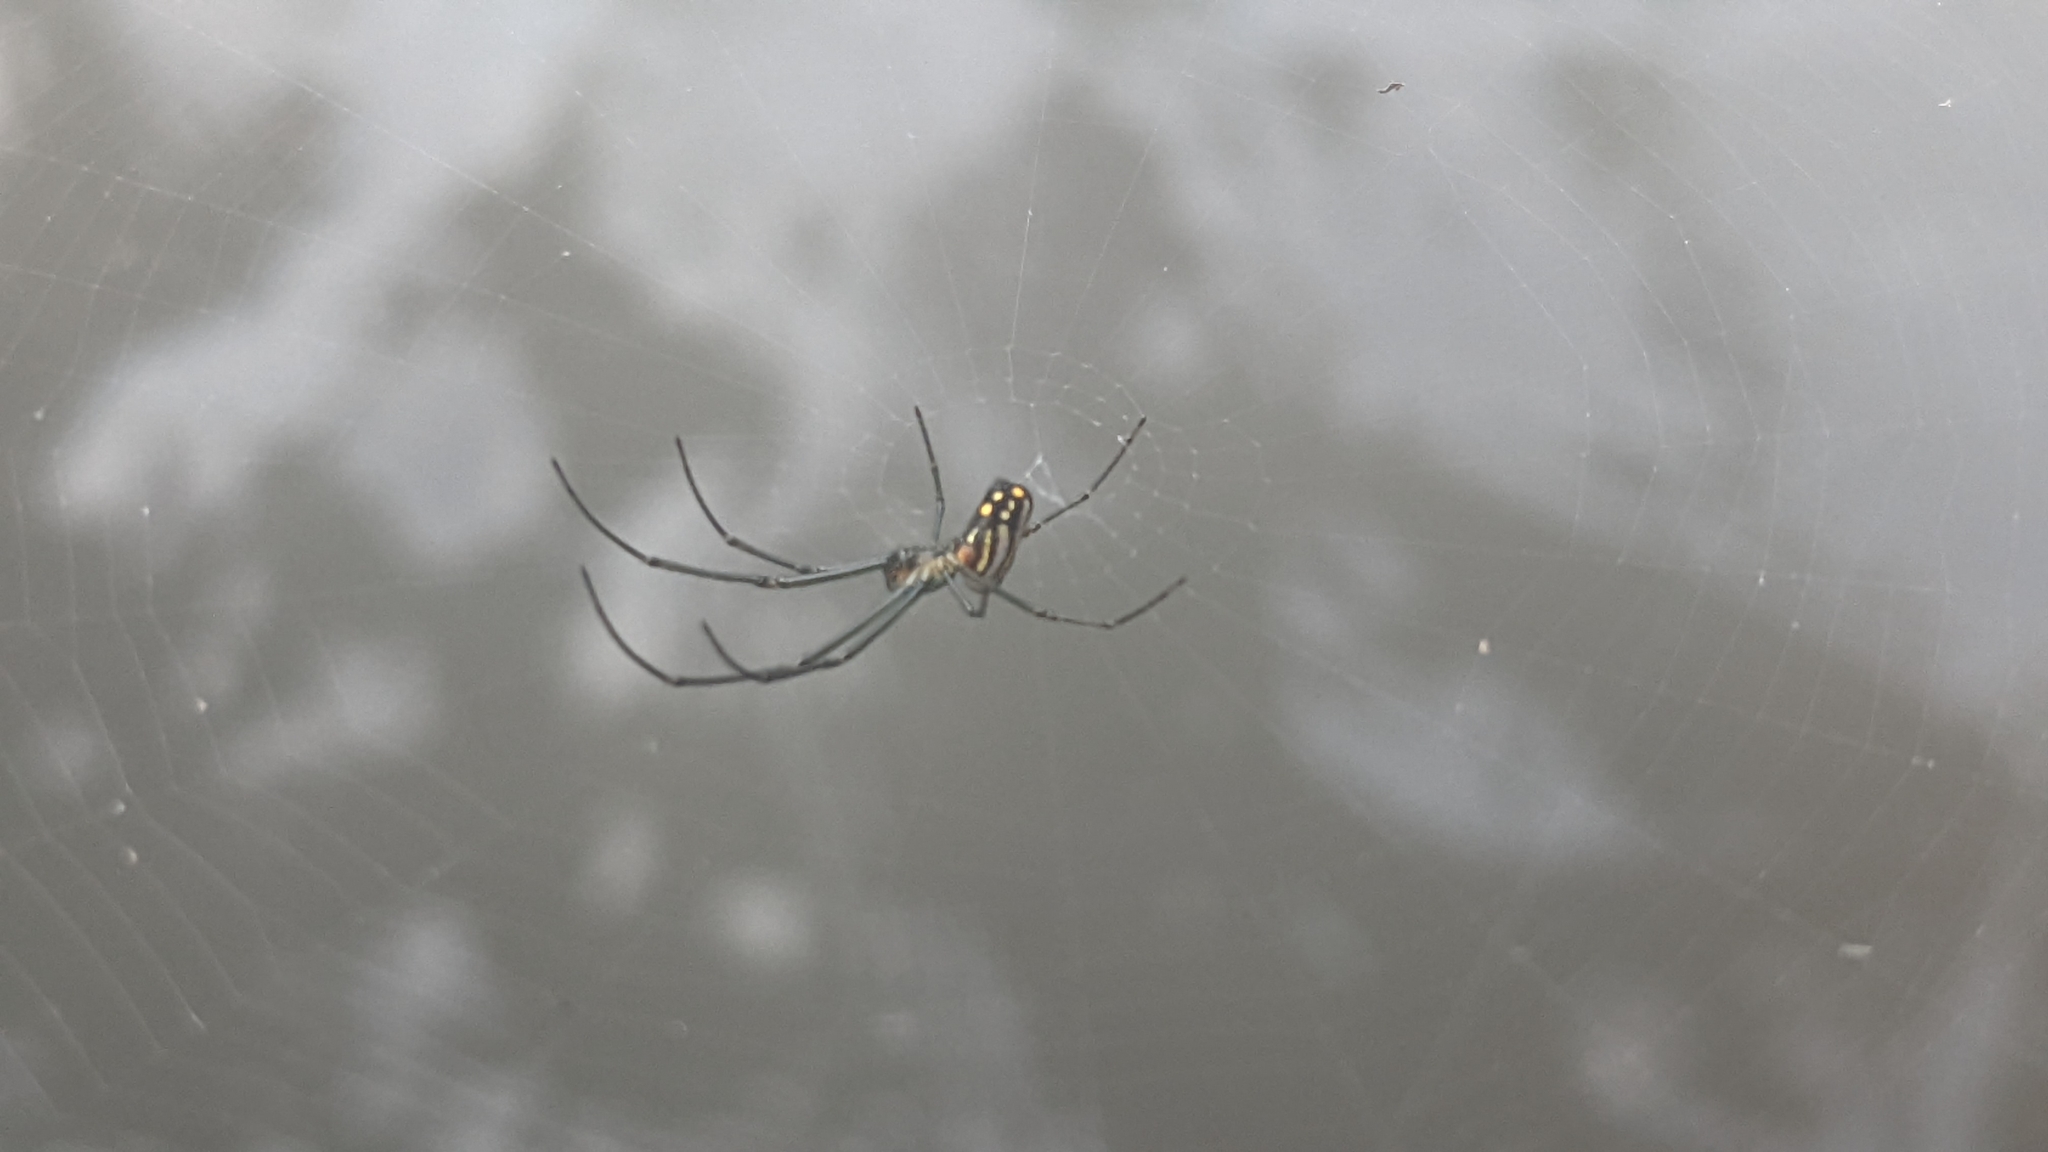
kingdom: Animalia
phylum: Arthropoda
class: Arachnida
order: Araneae
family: Tetragnathidae
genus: Leucauge
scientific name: Leucauge argyra
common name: Longjawed orb weavers
